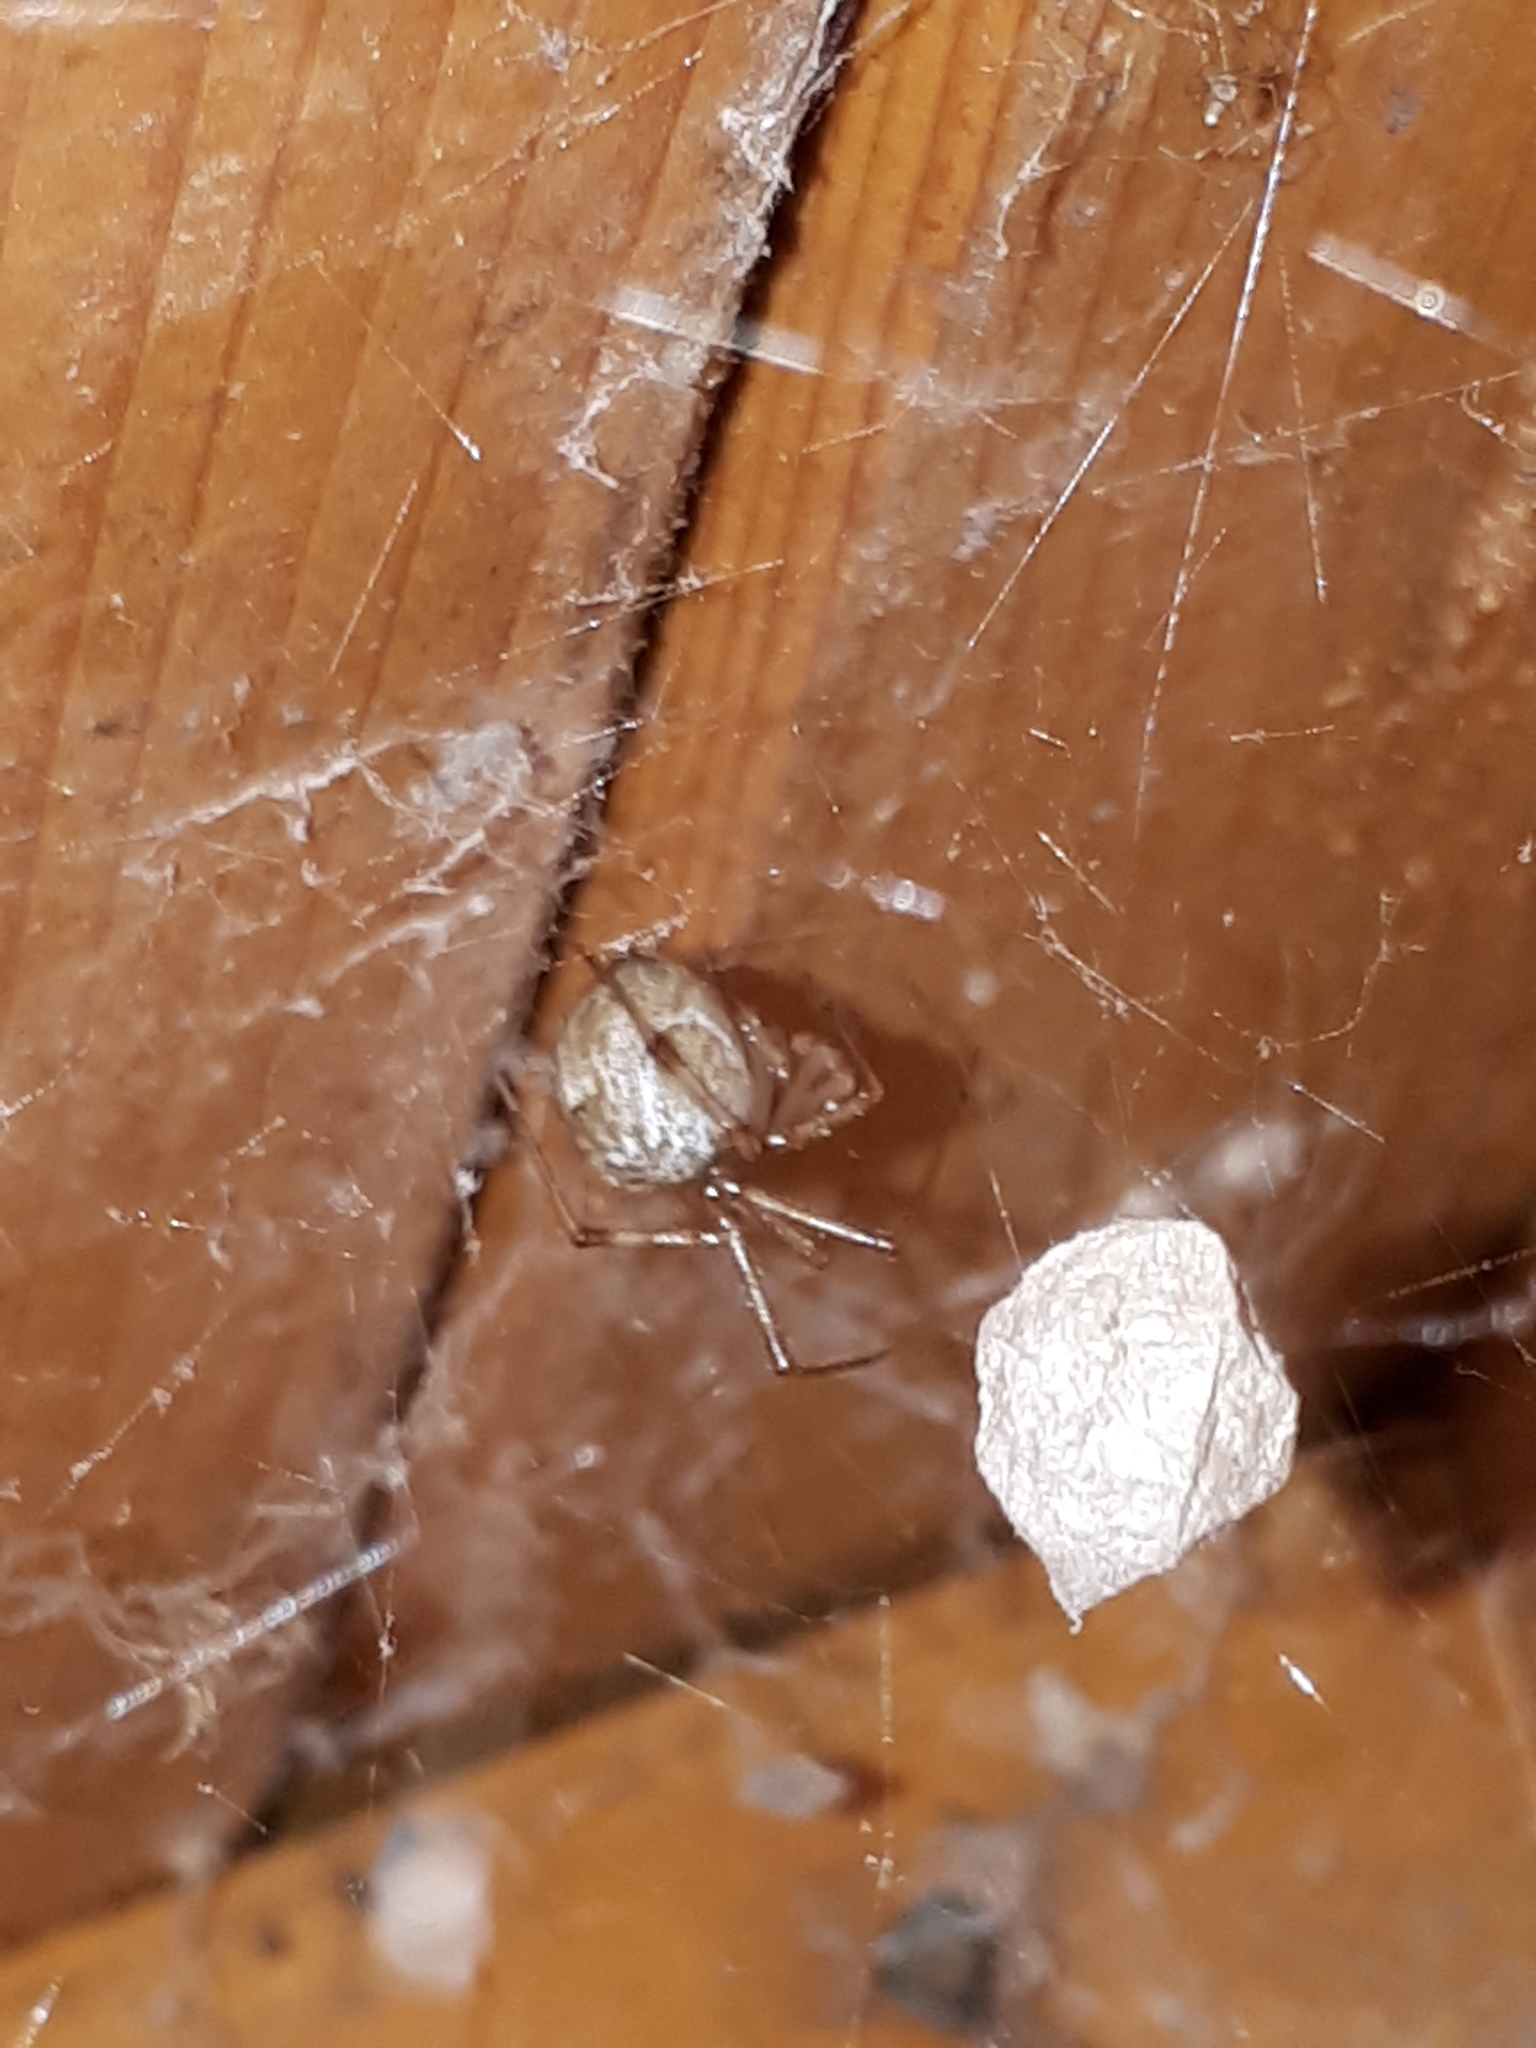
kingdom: Animalia
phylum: Arthropoda
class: Arachnida
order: Araneae
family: Theridiidae
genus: Parasteatoda
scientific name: Parasteatoda tepidariorum
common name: Common house spider
